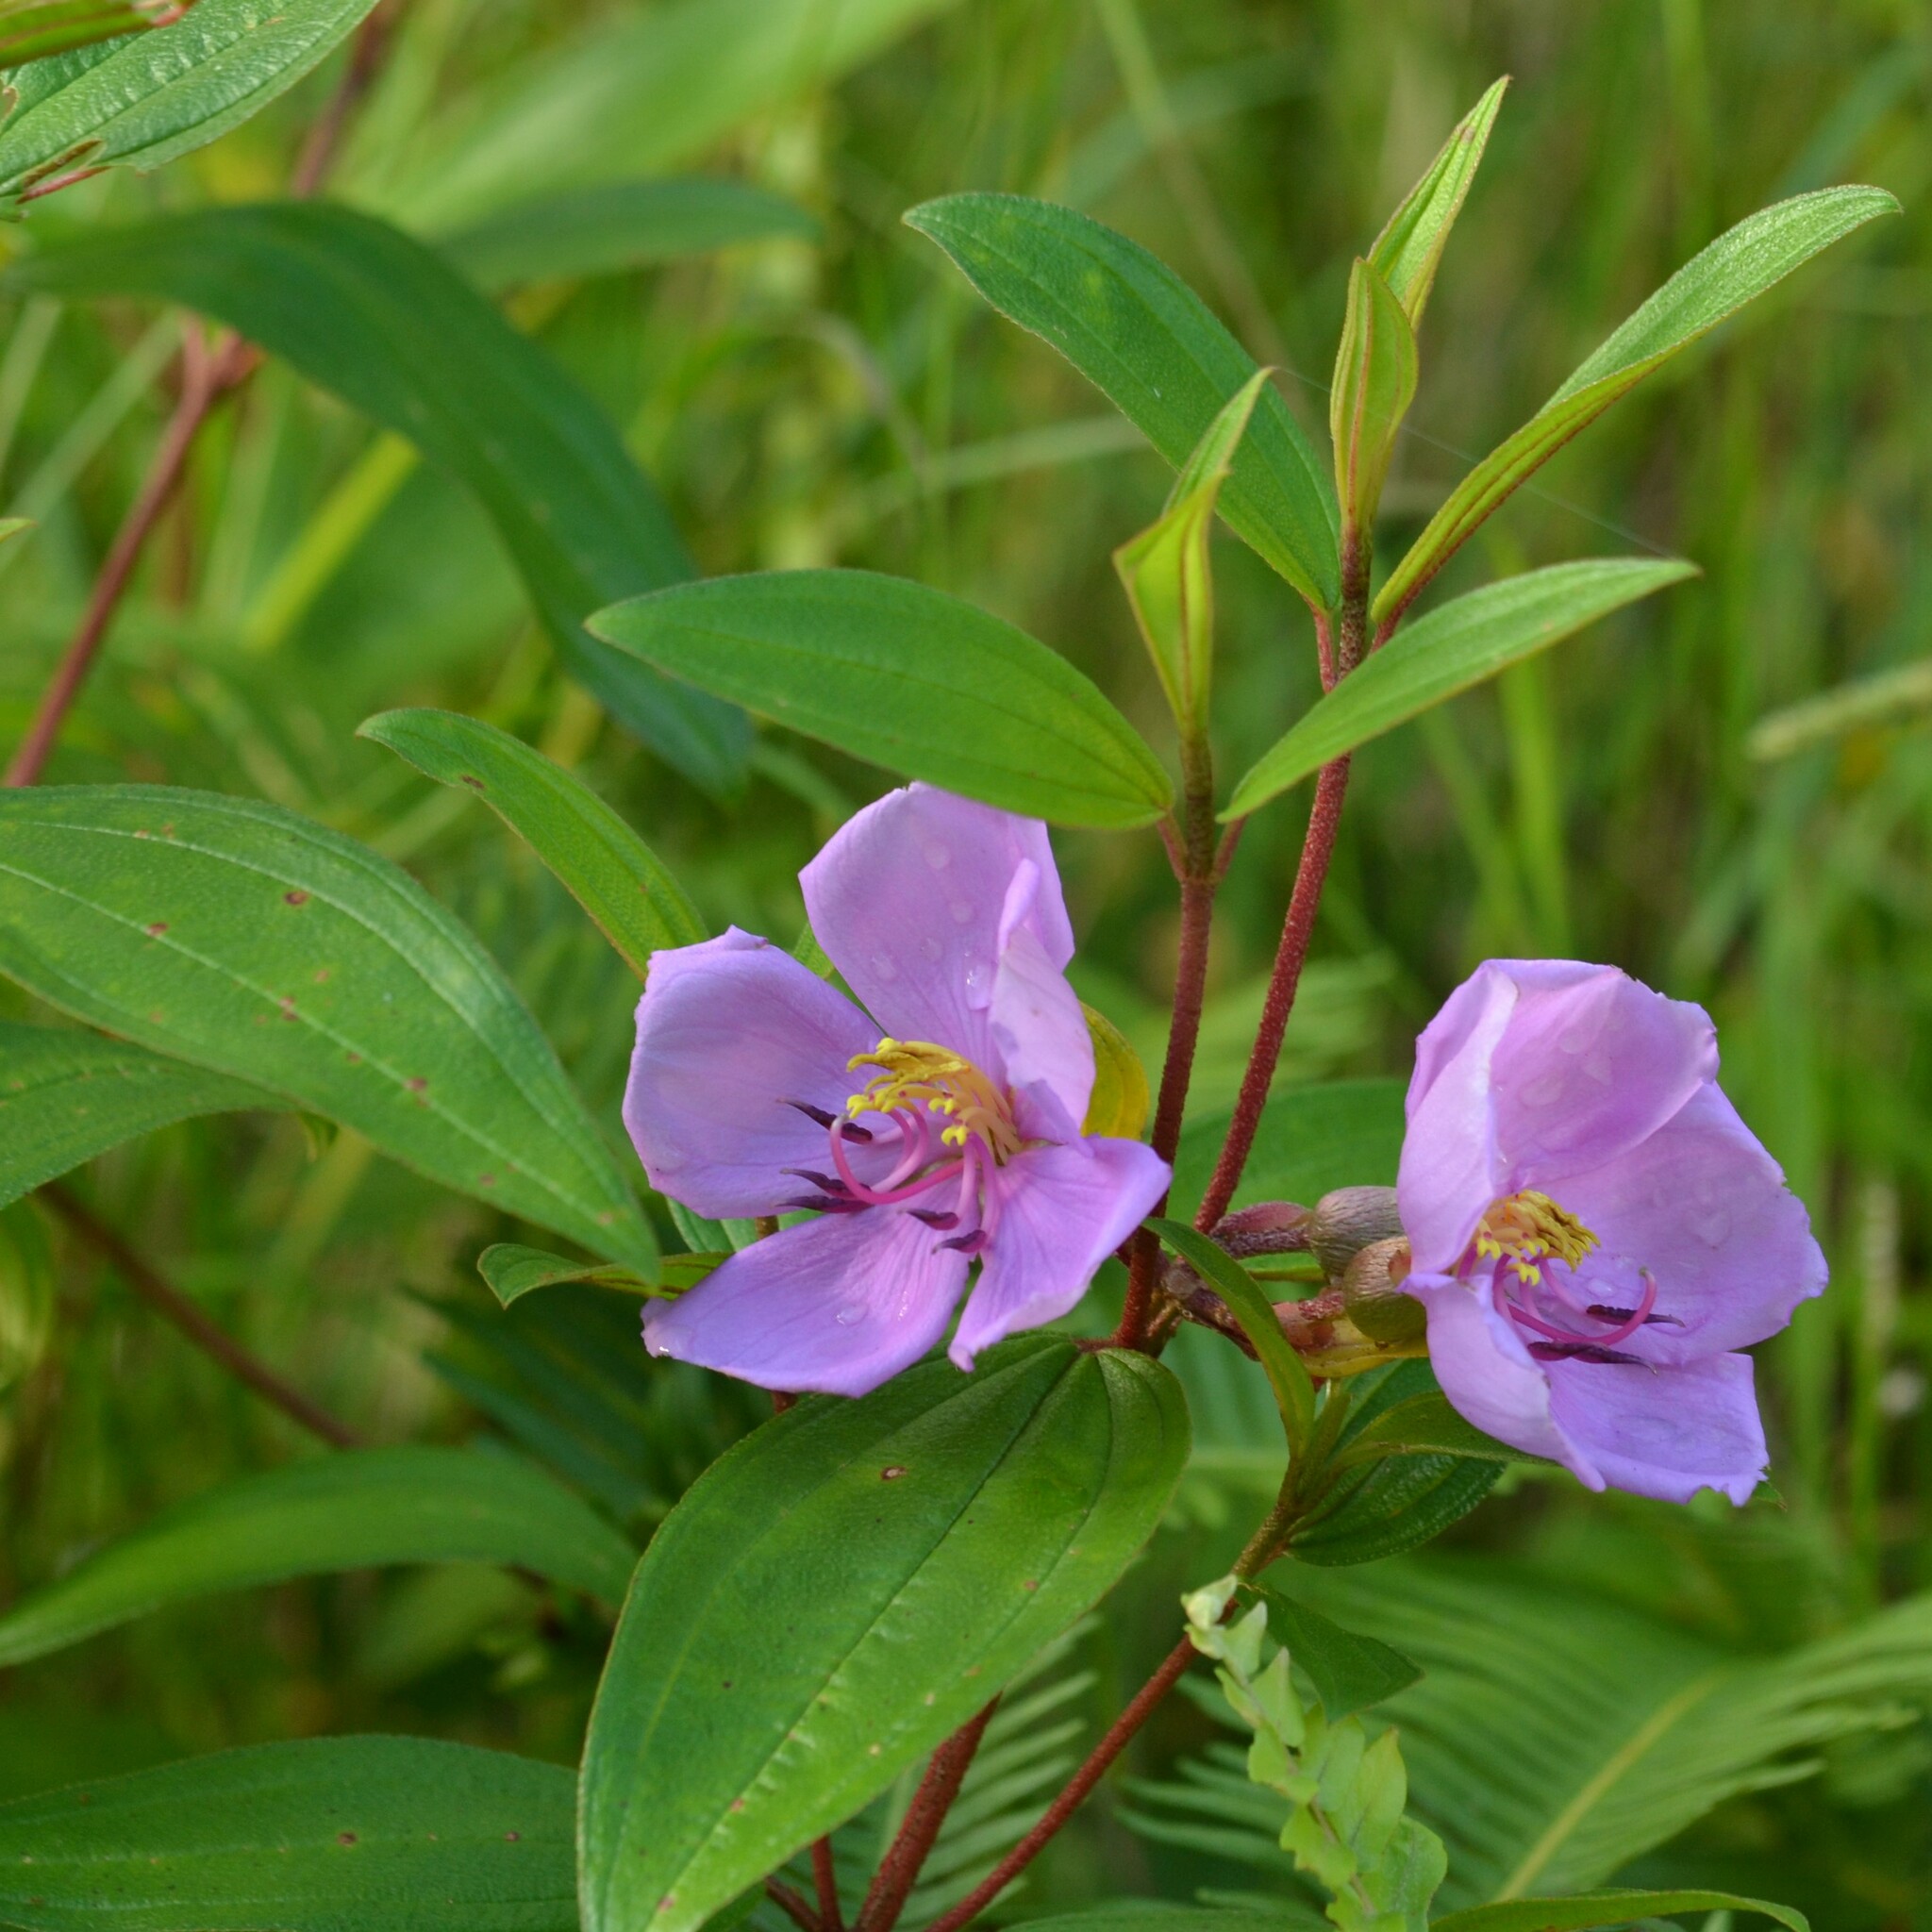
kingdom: Plantae
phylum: Tracheophyta
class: Magnoliopsida
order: Myrtales
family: Melastomataceae
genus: Melastoma
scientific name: Melastoma malabathricum
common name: Indian-rhododendron
